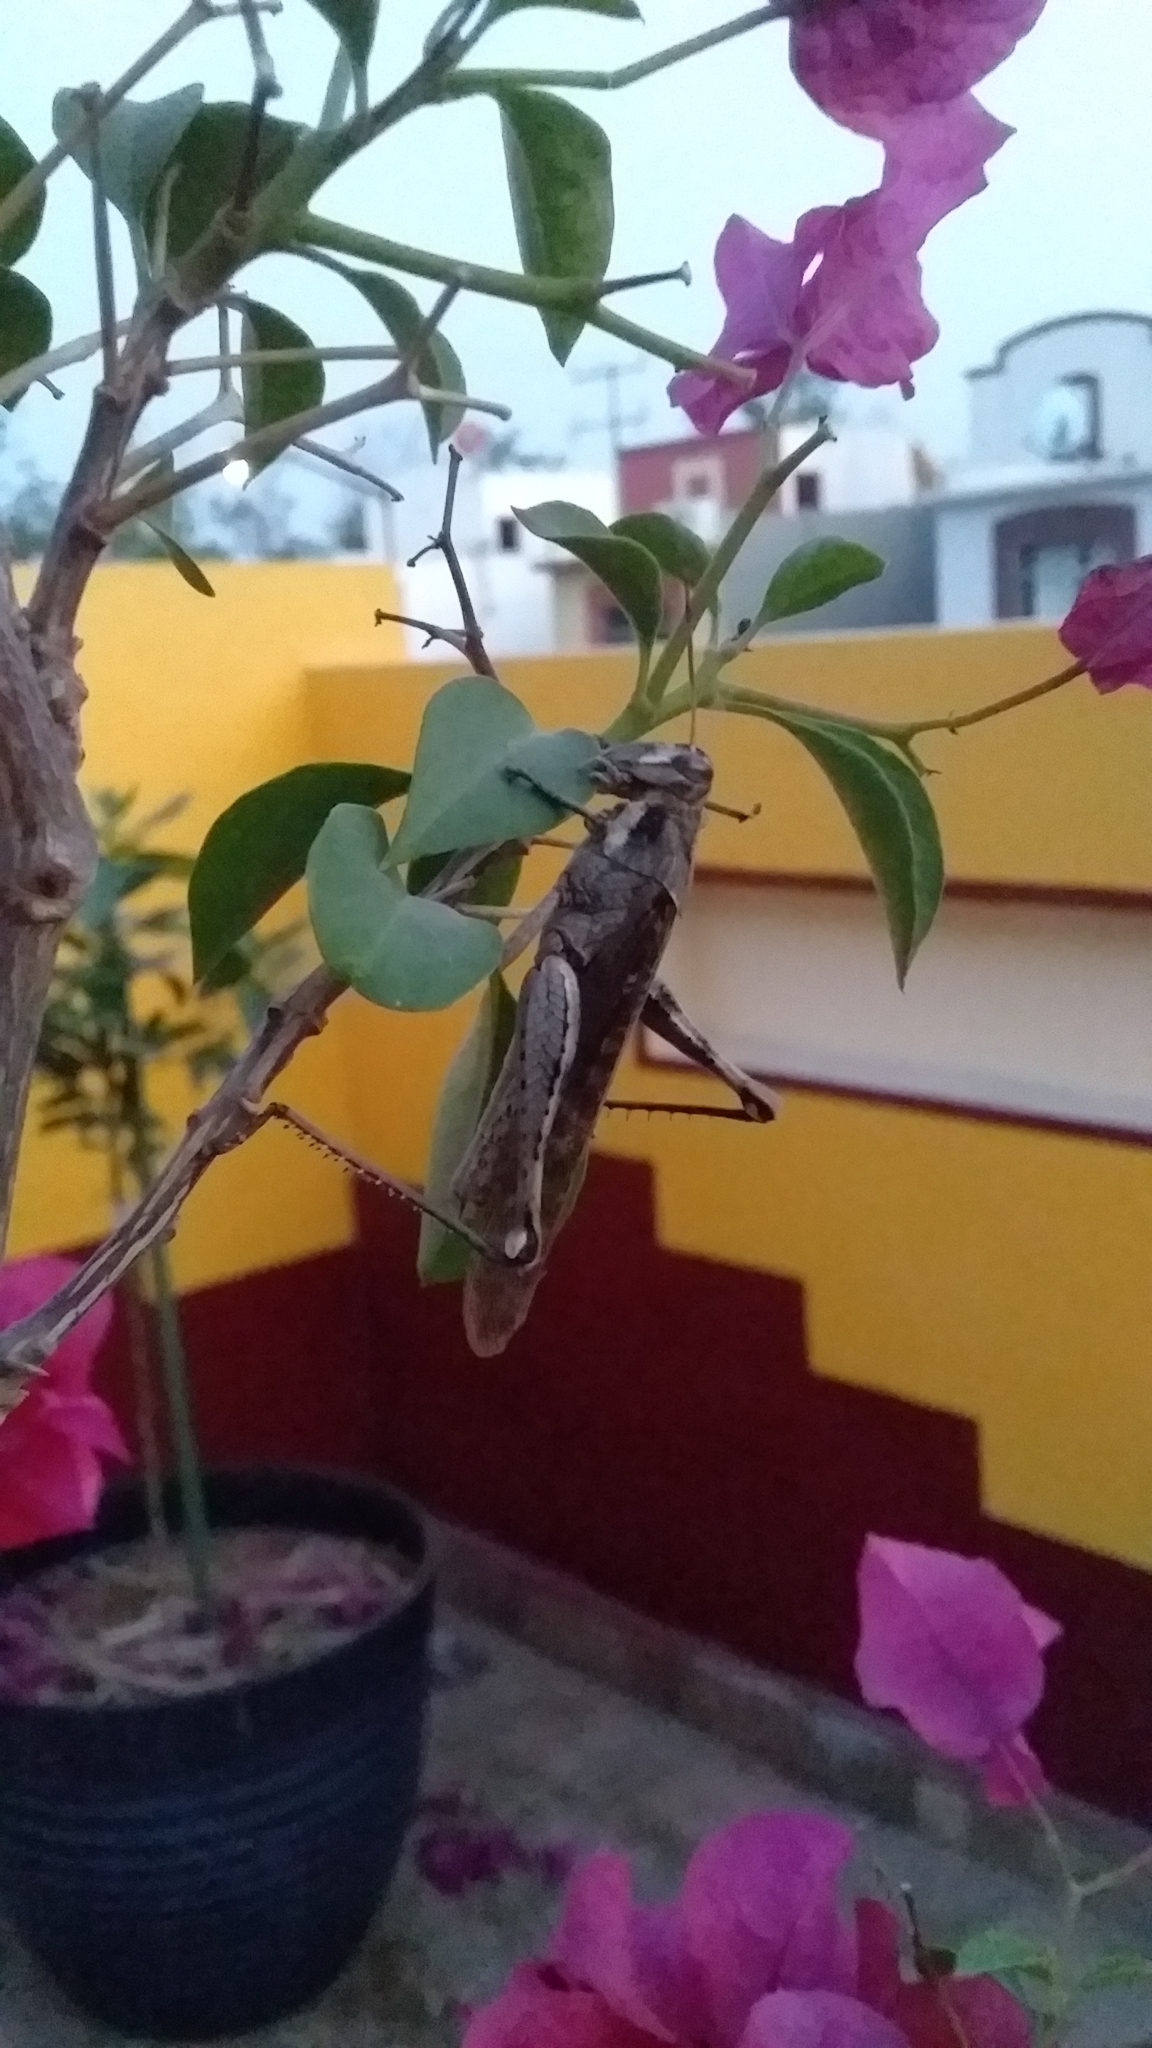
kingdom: Animalia
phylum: Arthropoda
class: Insecta
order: Orthoptera
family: Acrididae
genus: Schistocerca
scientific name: Schistocerca nitens
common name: Vagrant grasshopper
